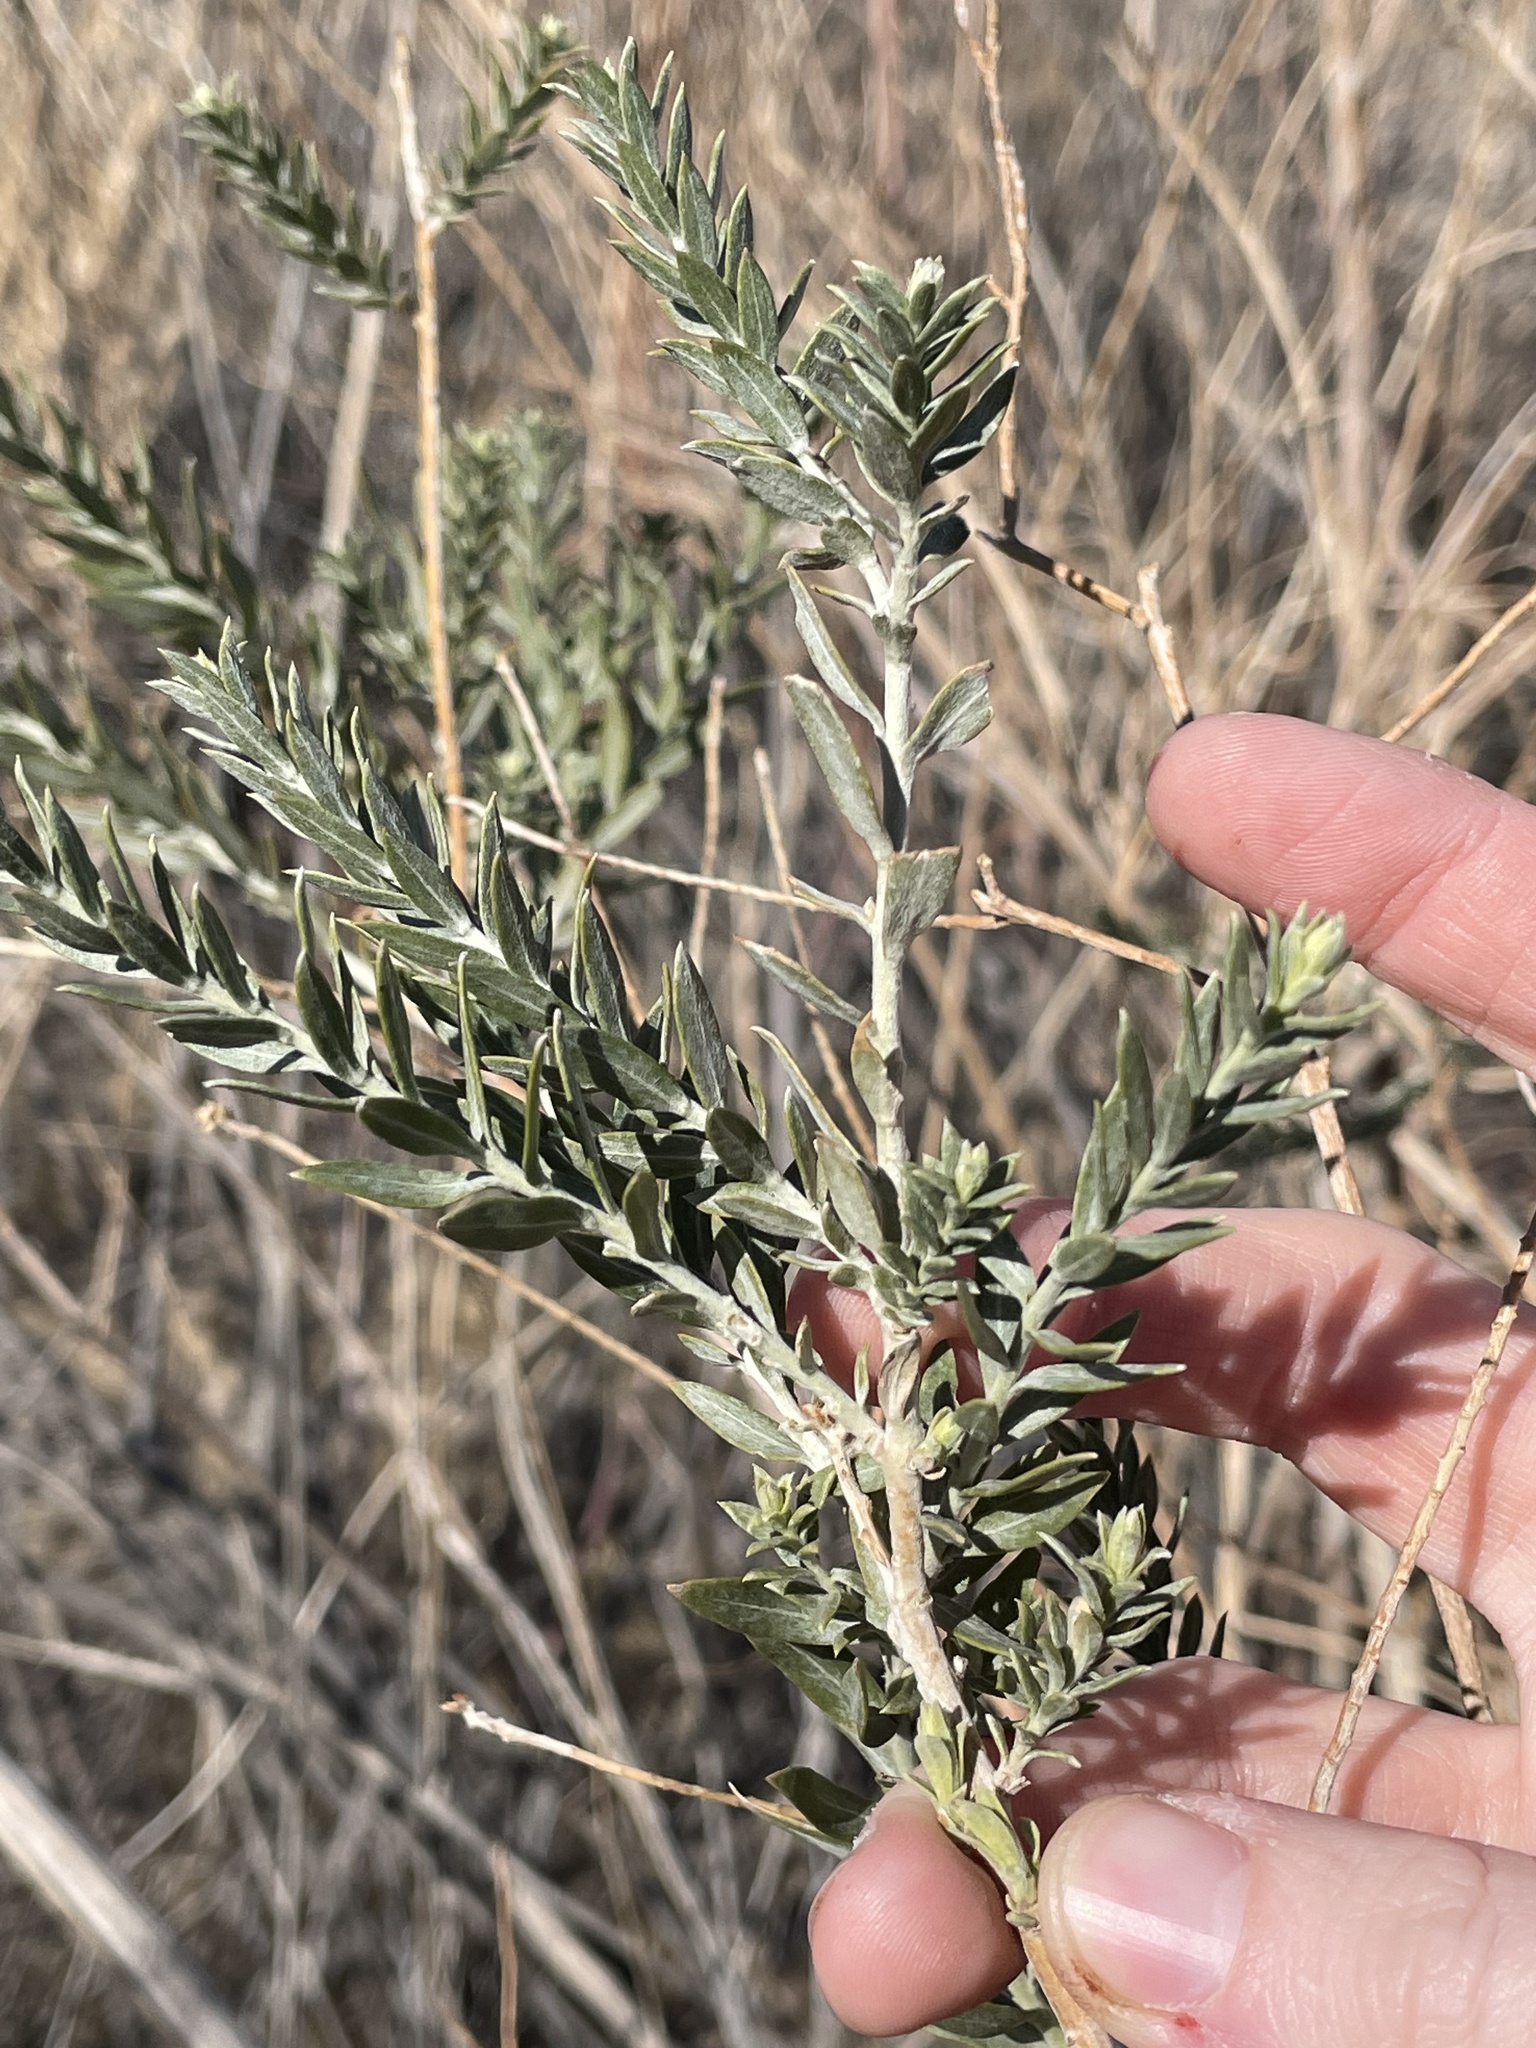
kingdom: Plantae
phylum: Tracheophyta
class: Magnoliopsida
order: Asterales
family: Asteraceae
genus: Pluchea
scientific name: Pluchea sericea
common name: Arrow-weed
